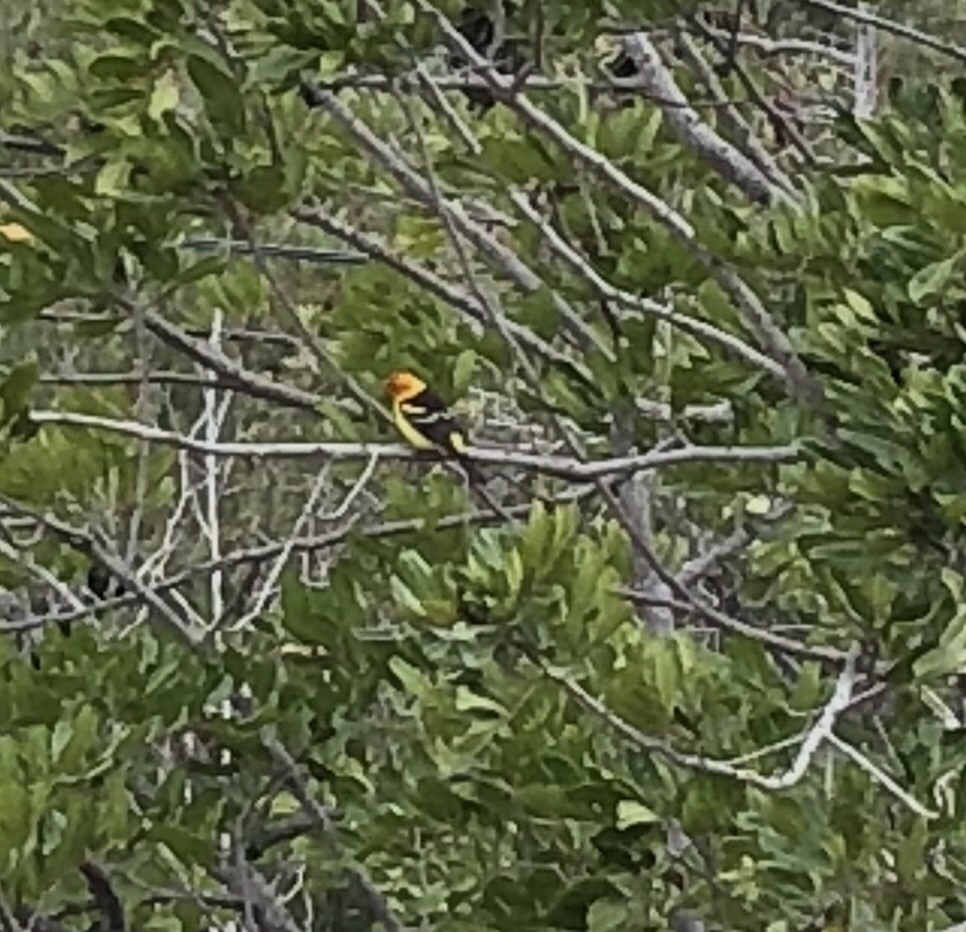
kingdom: Animalia
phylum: Chordata
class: Aves
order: Passeriformes
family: Cardinalidae
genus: Piranga
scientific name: Piranga ludoviciana
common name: Western tanager
